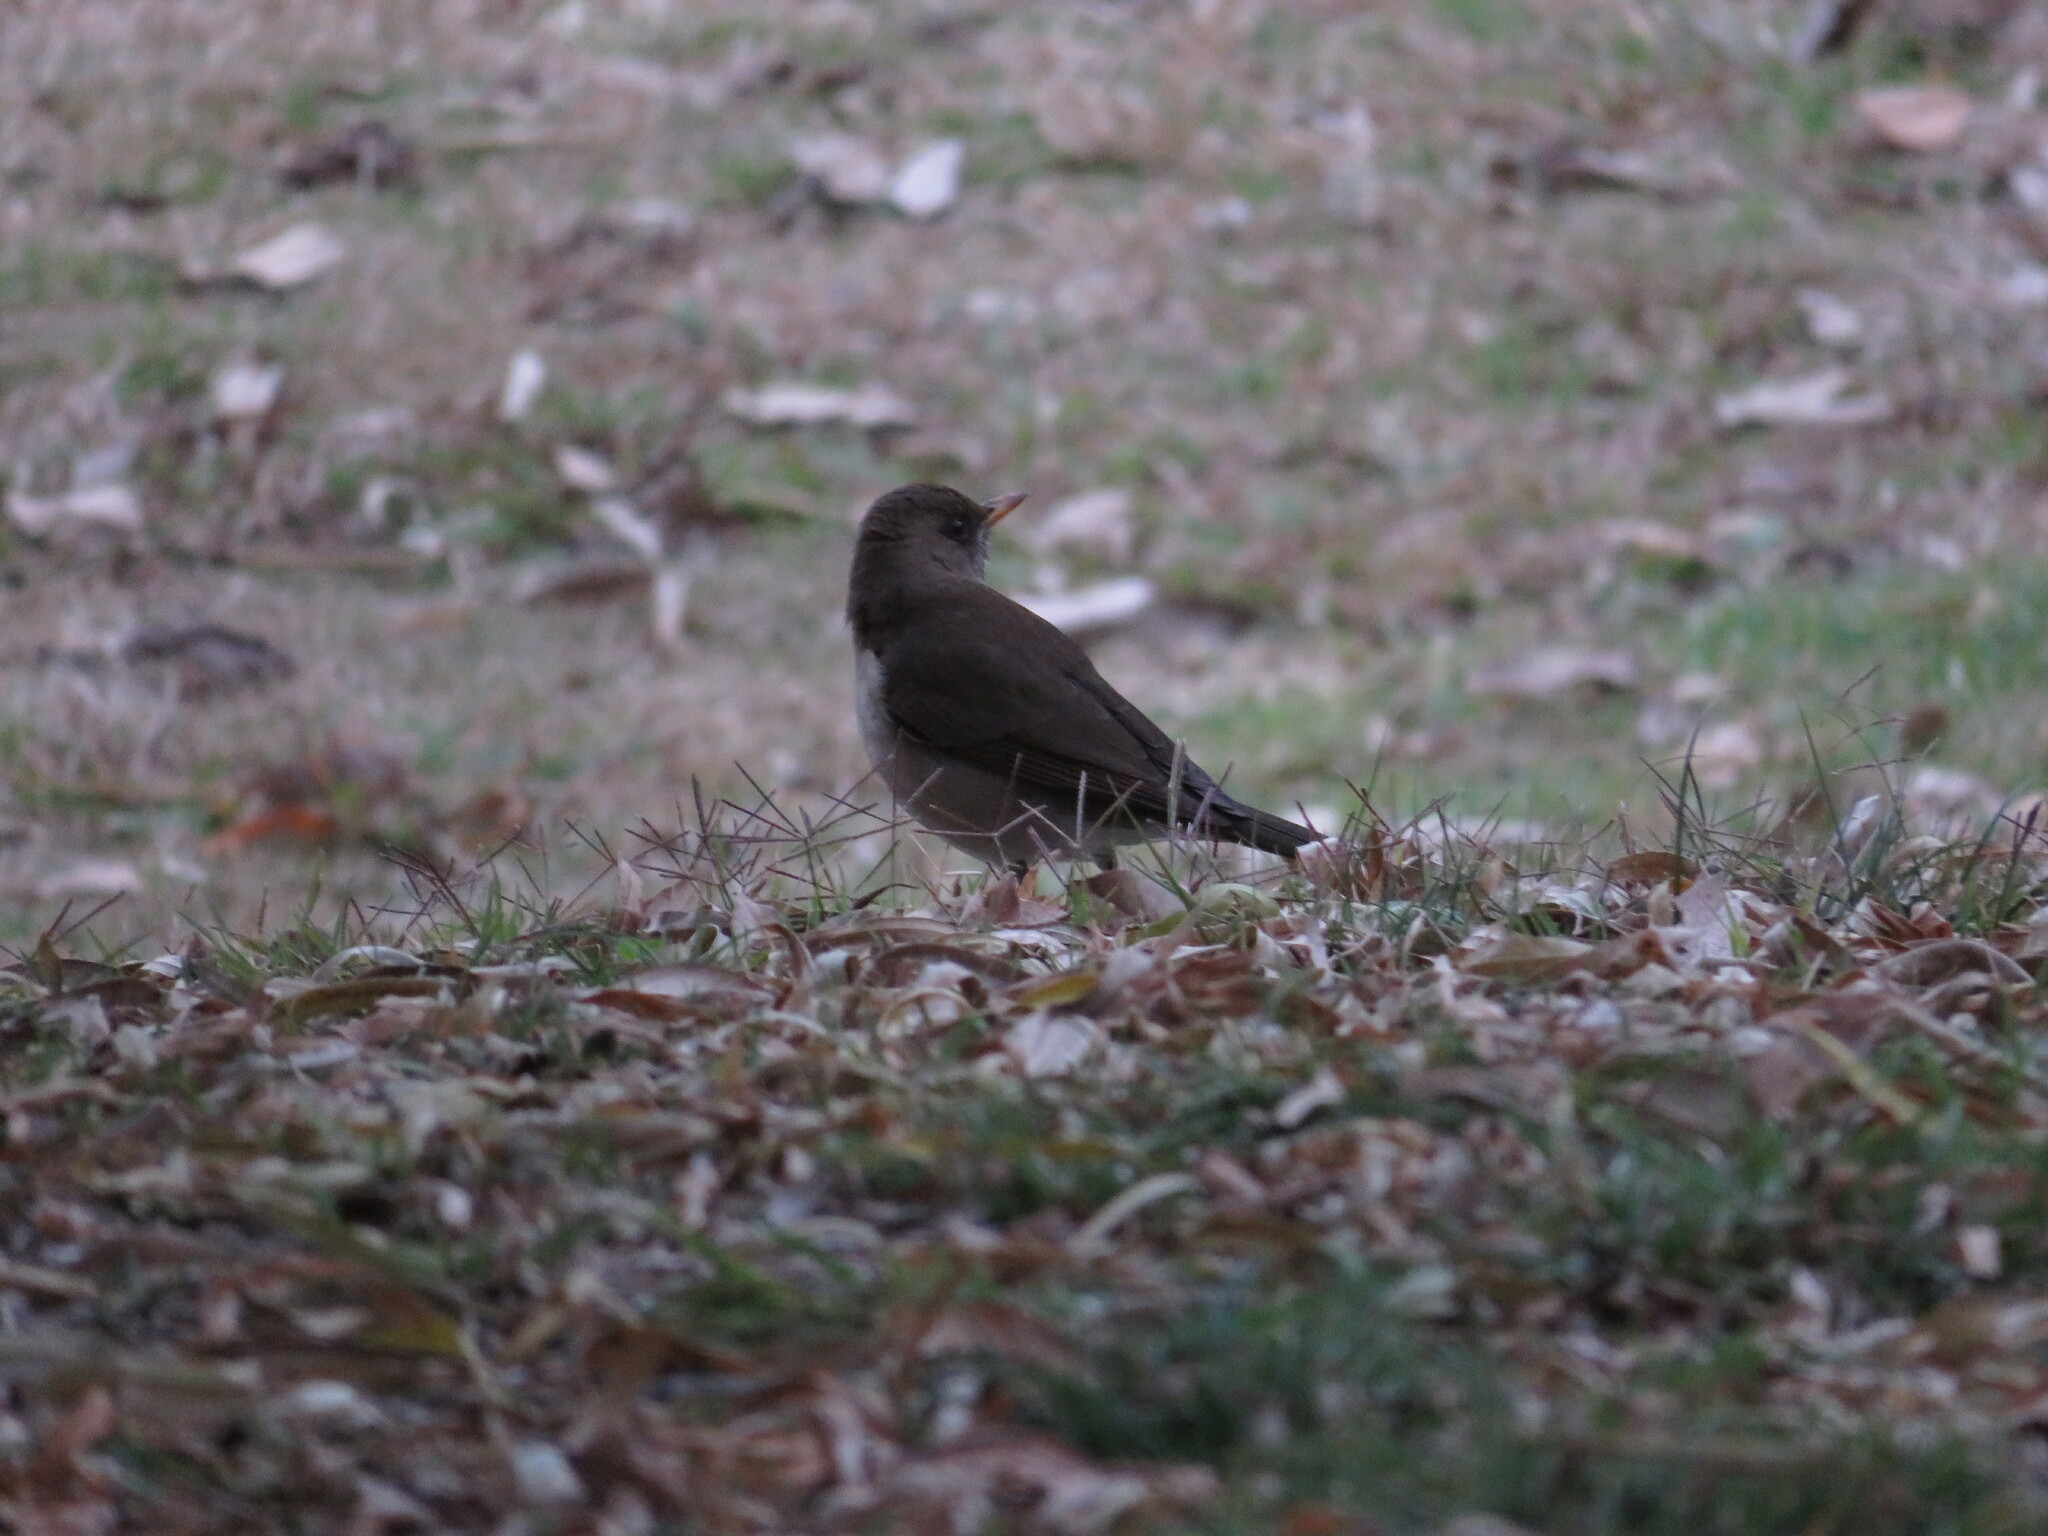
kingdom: Animalia
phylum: Chordata
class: Aves
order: Passeriformes
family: Turdidae
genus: Turdus
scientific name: Turdus amaurochalinus
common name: Creamy-bellied thrush
